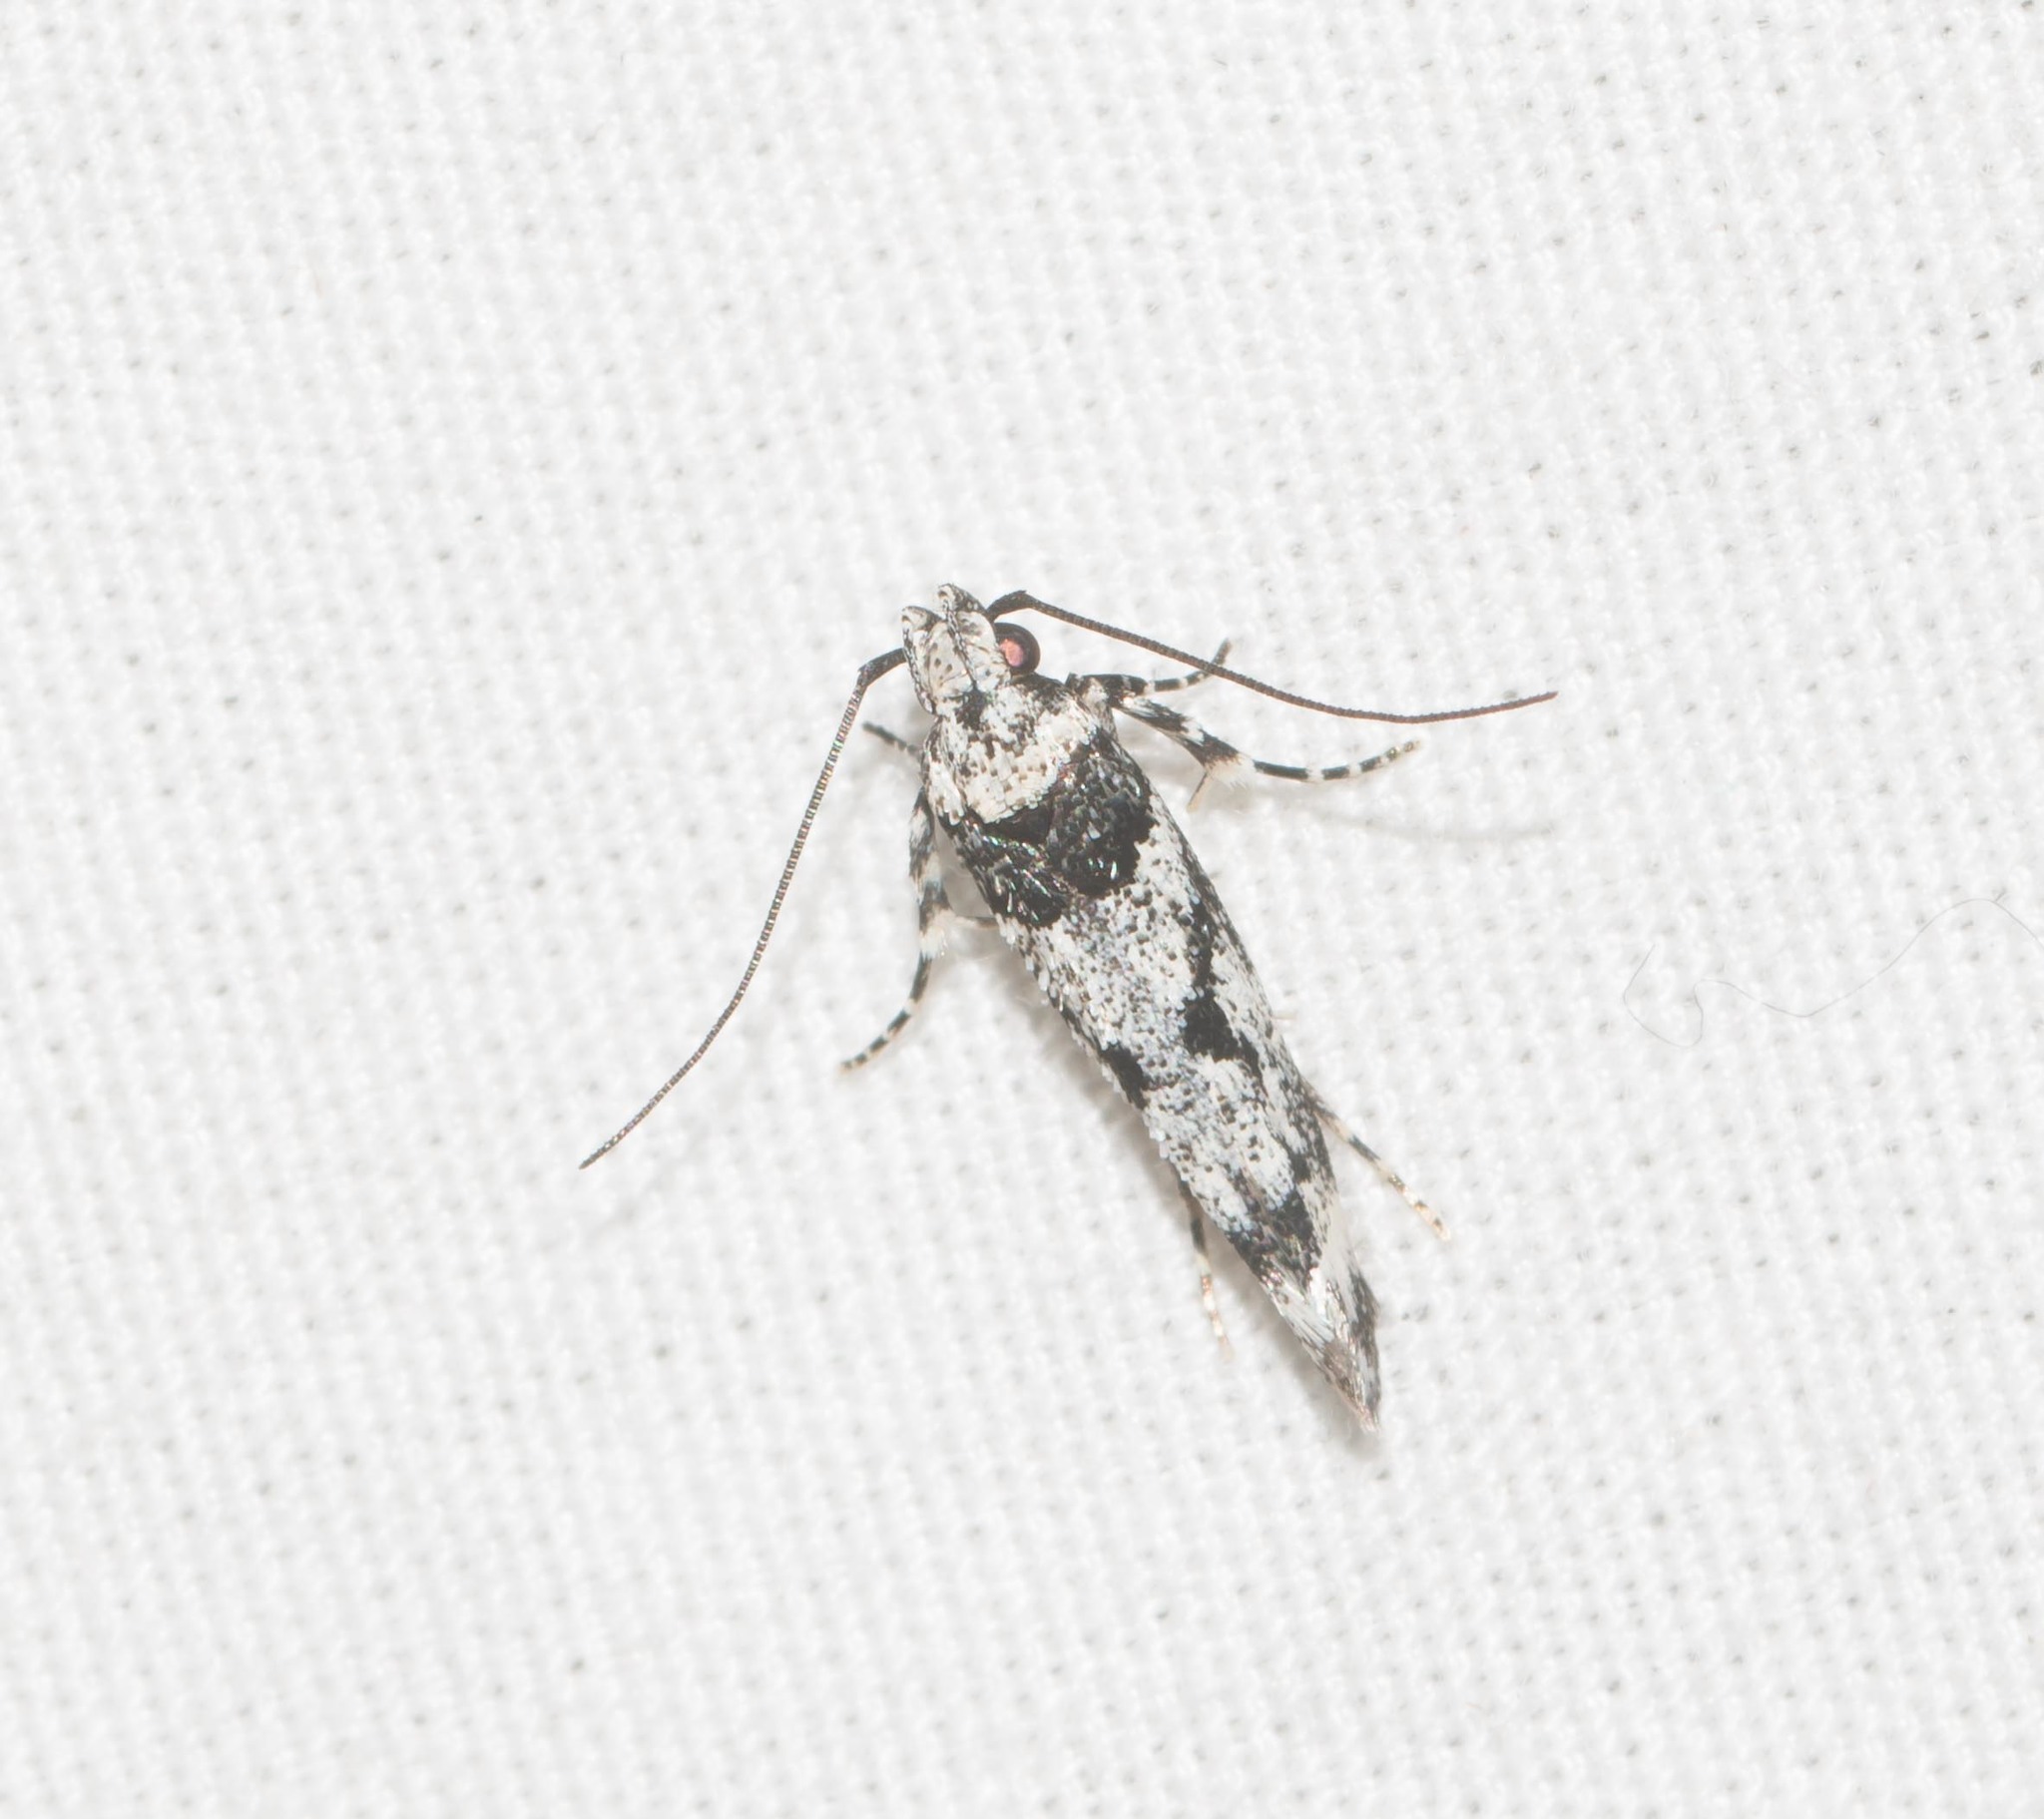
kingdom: Animalia
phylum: Arthropoda
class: Insecta
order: Lepidoptera
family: Cosmopterigidae
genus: Hyposmochoma
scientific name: Hyposmochoma empedota
